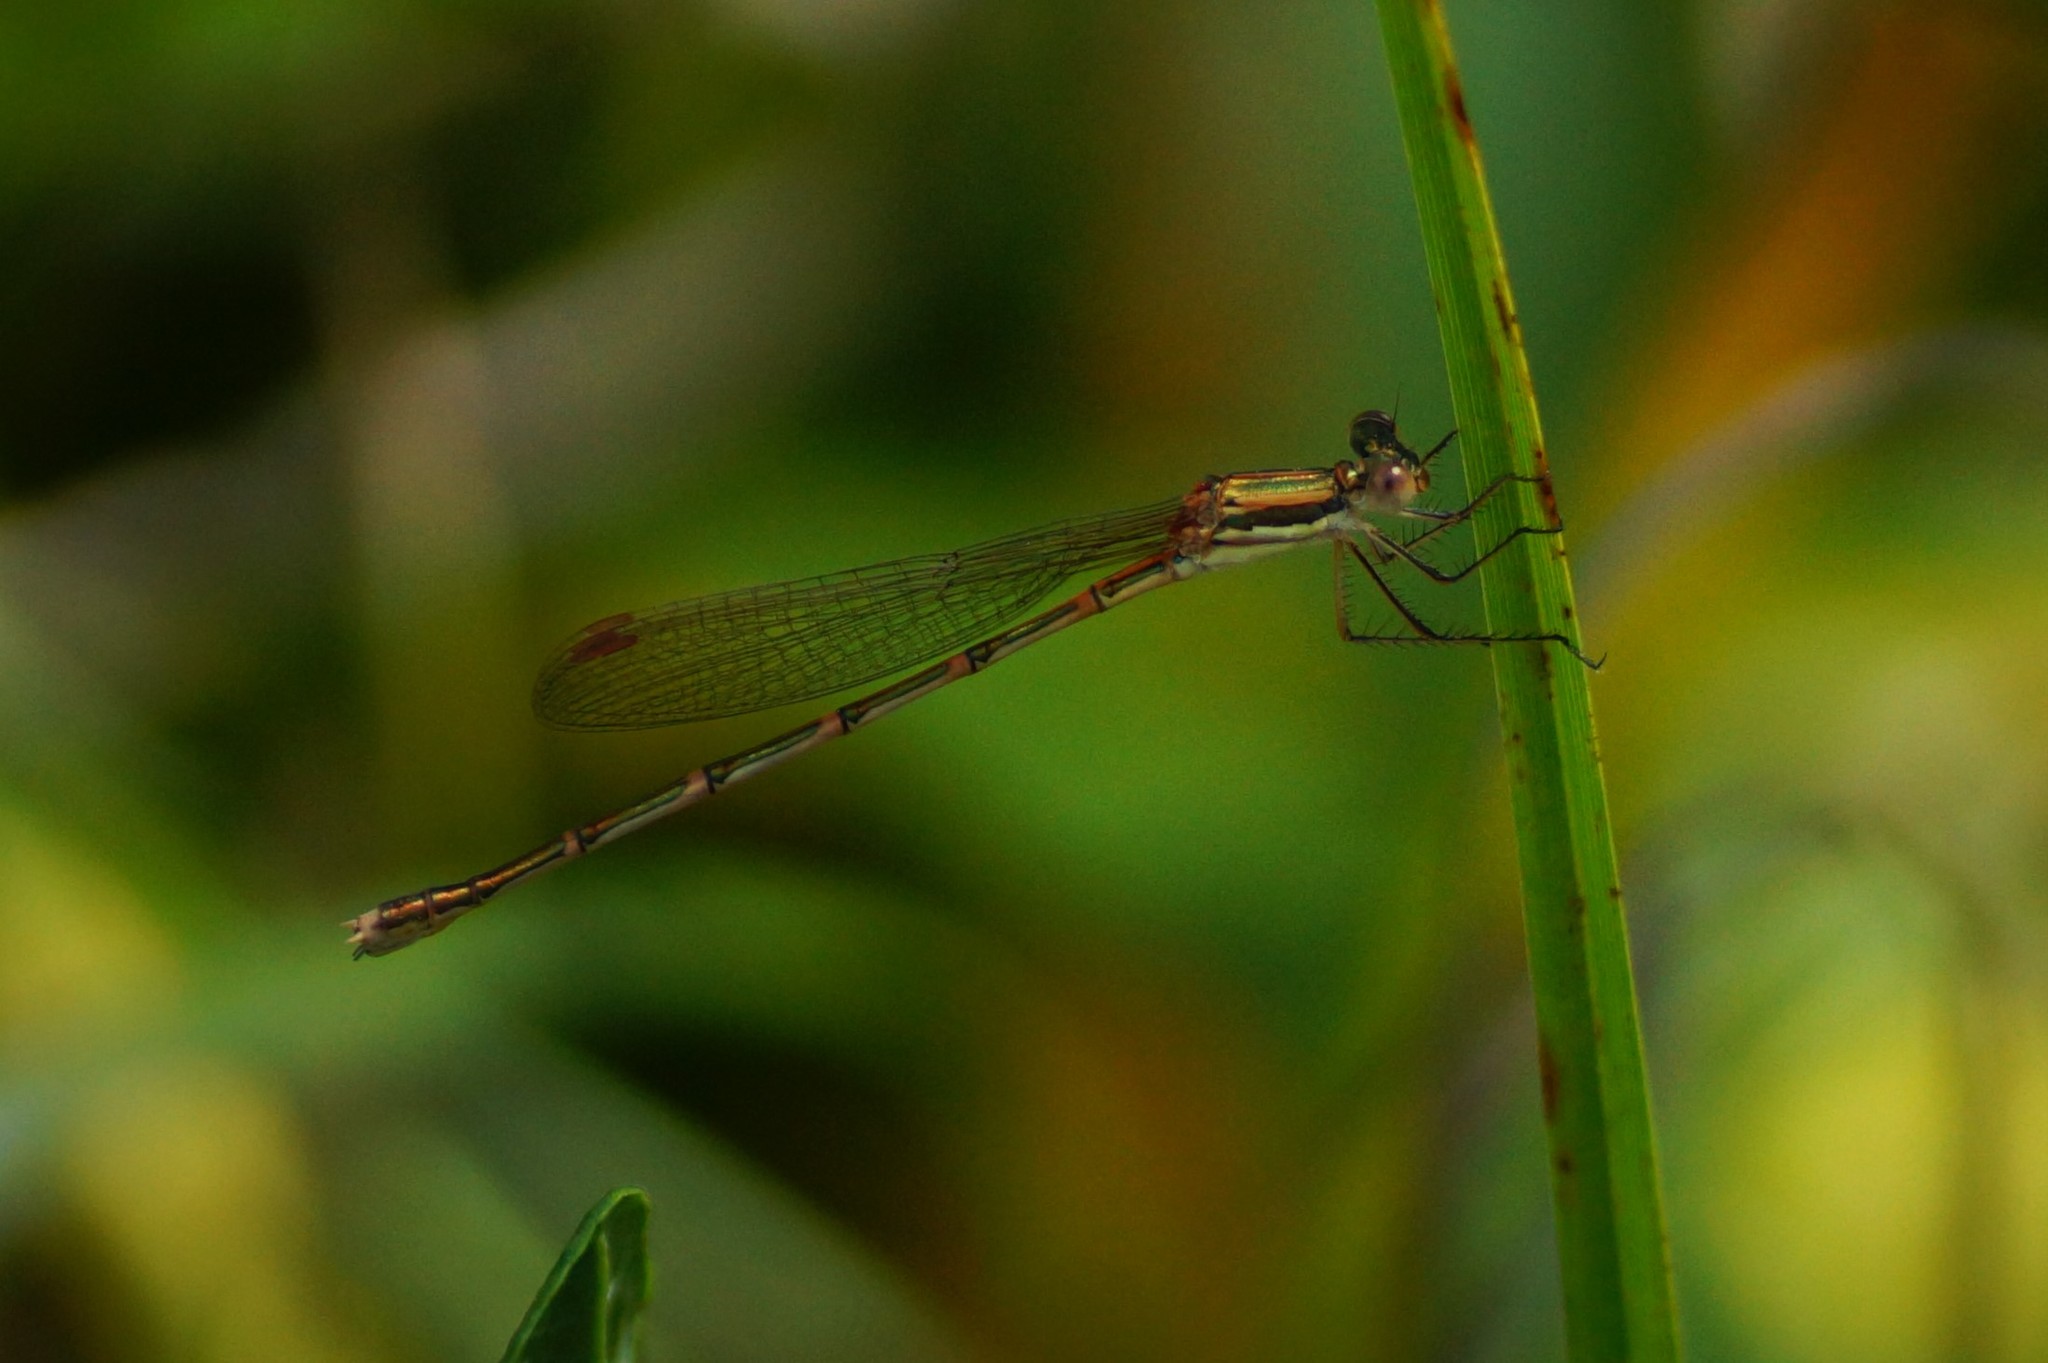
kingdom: Animalia
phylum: Arthropoda
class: Insecta
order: Odonata
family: Lestidae
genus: Austrolestes
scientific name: Austrolestes analis
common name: Slender ringtail
